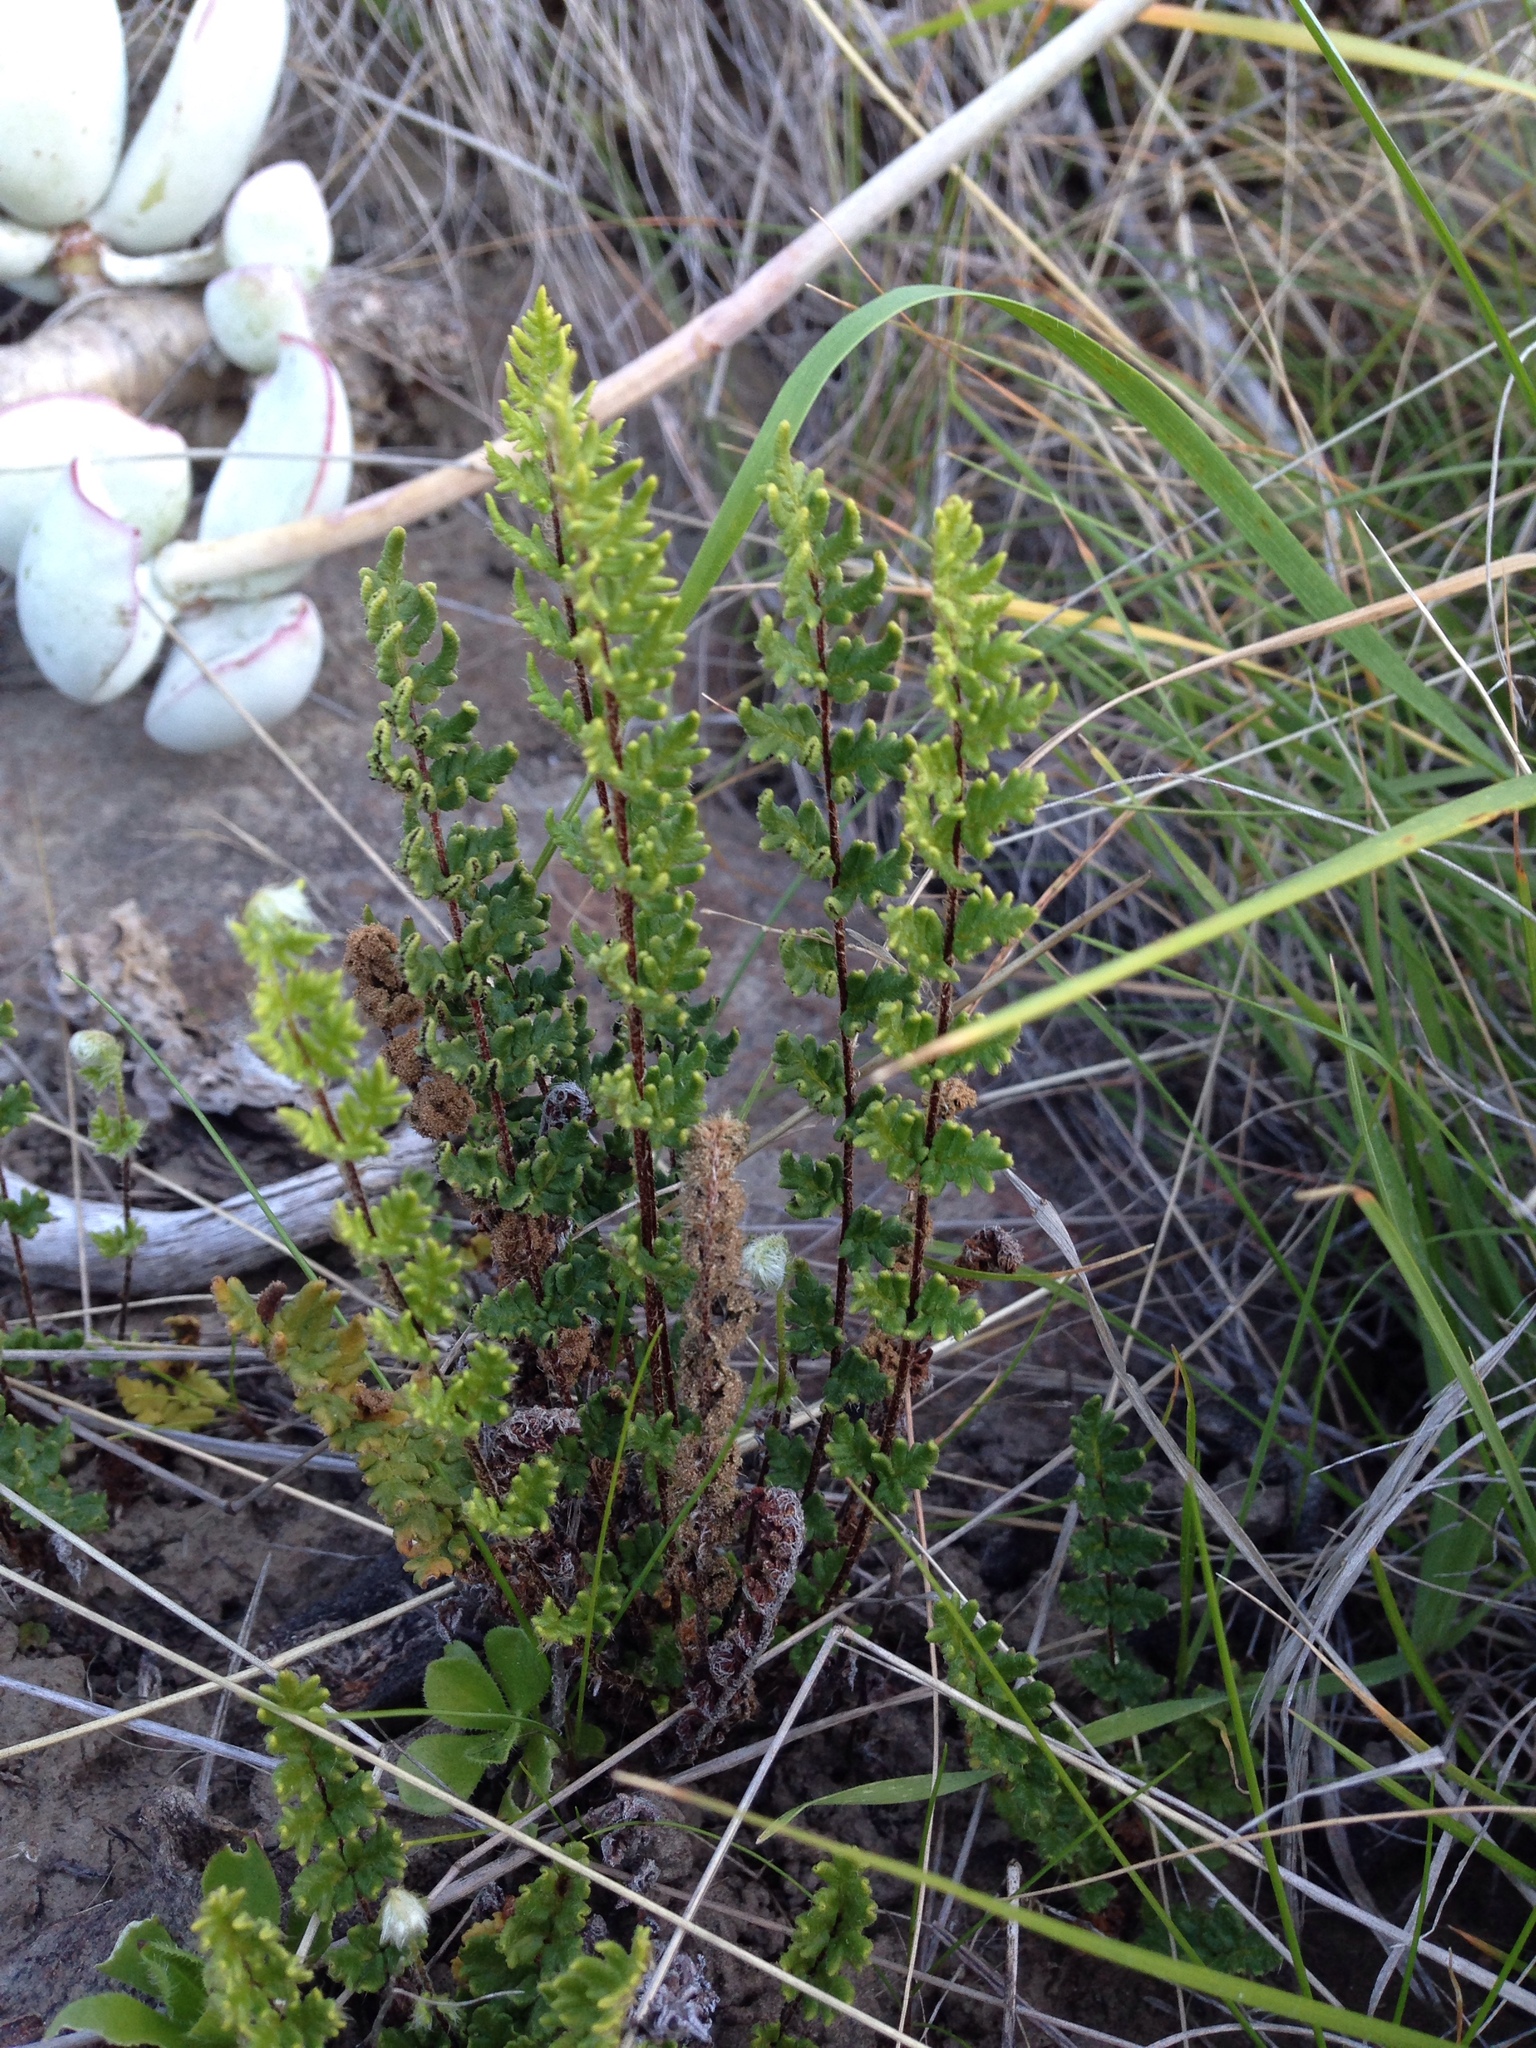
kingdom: Plantae
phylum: Tracheophyta
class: Polypodiopsida
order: Polypodiales
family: Pteridaceae
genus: Cheilanthes
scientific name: Cheilanthes distans
